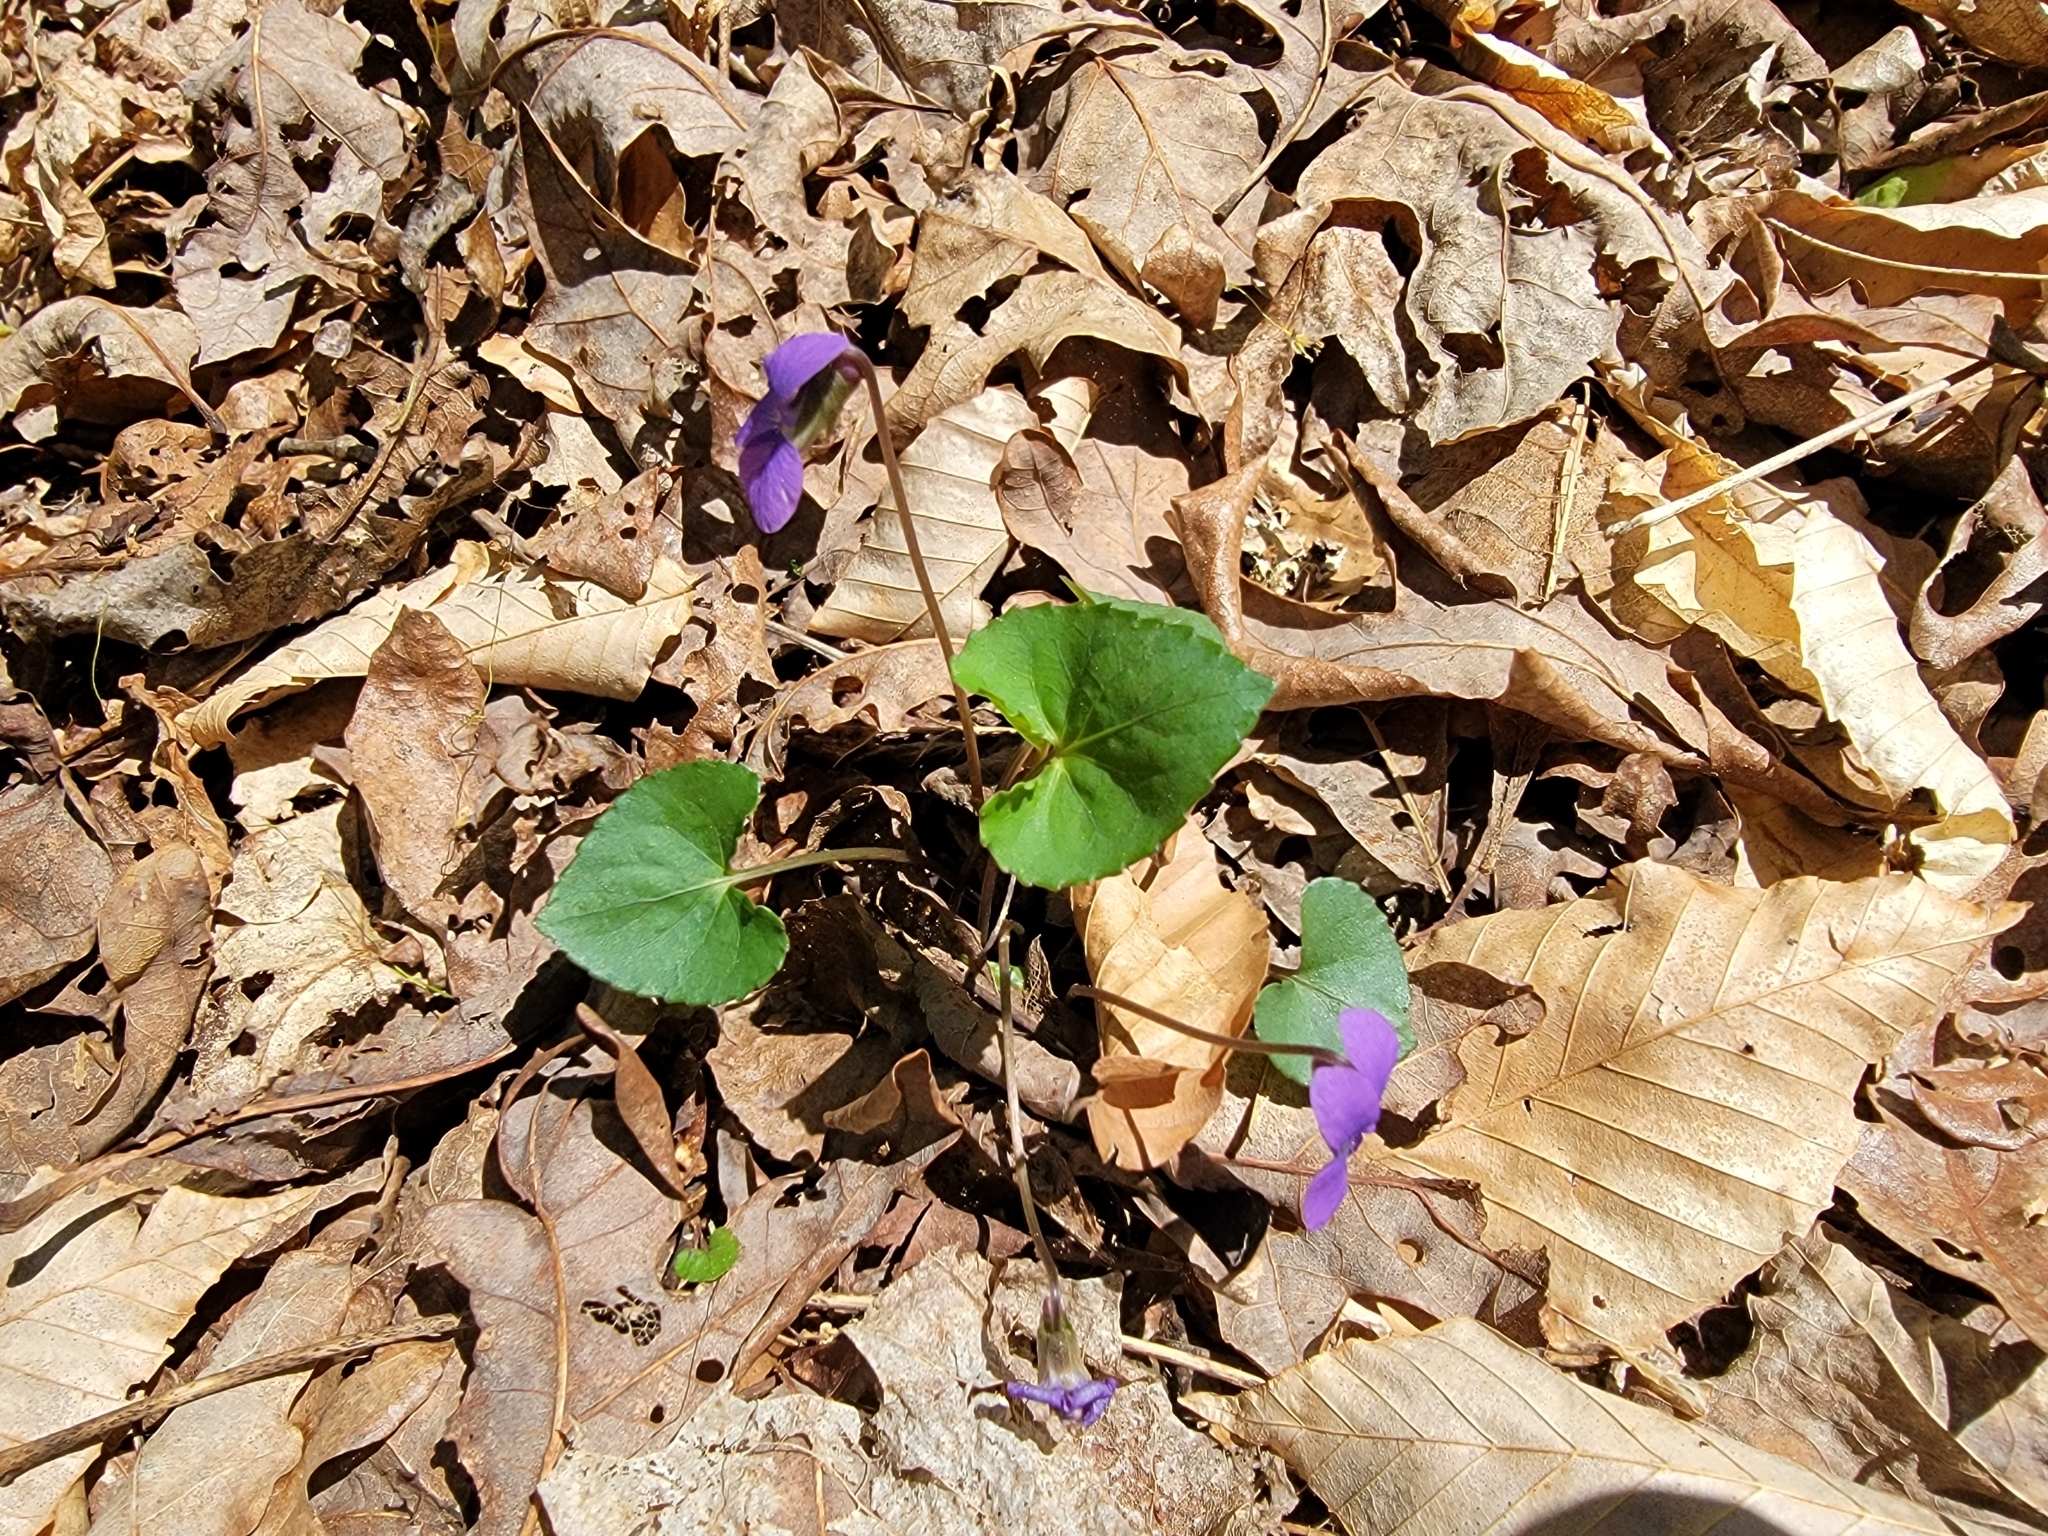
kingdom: Plantae
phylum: Tracheophyta
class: Magnoliopsida
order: Malpighiales
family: Violaceae
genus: Viola
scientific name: Viola sororia
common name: Dooryard violet
